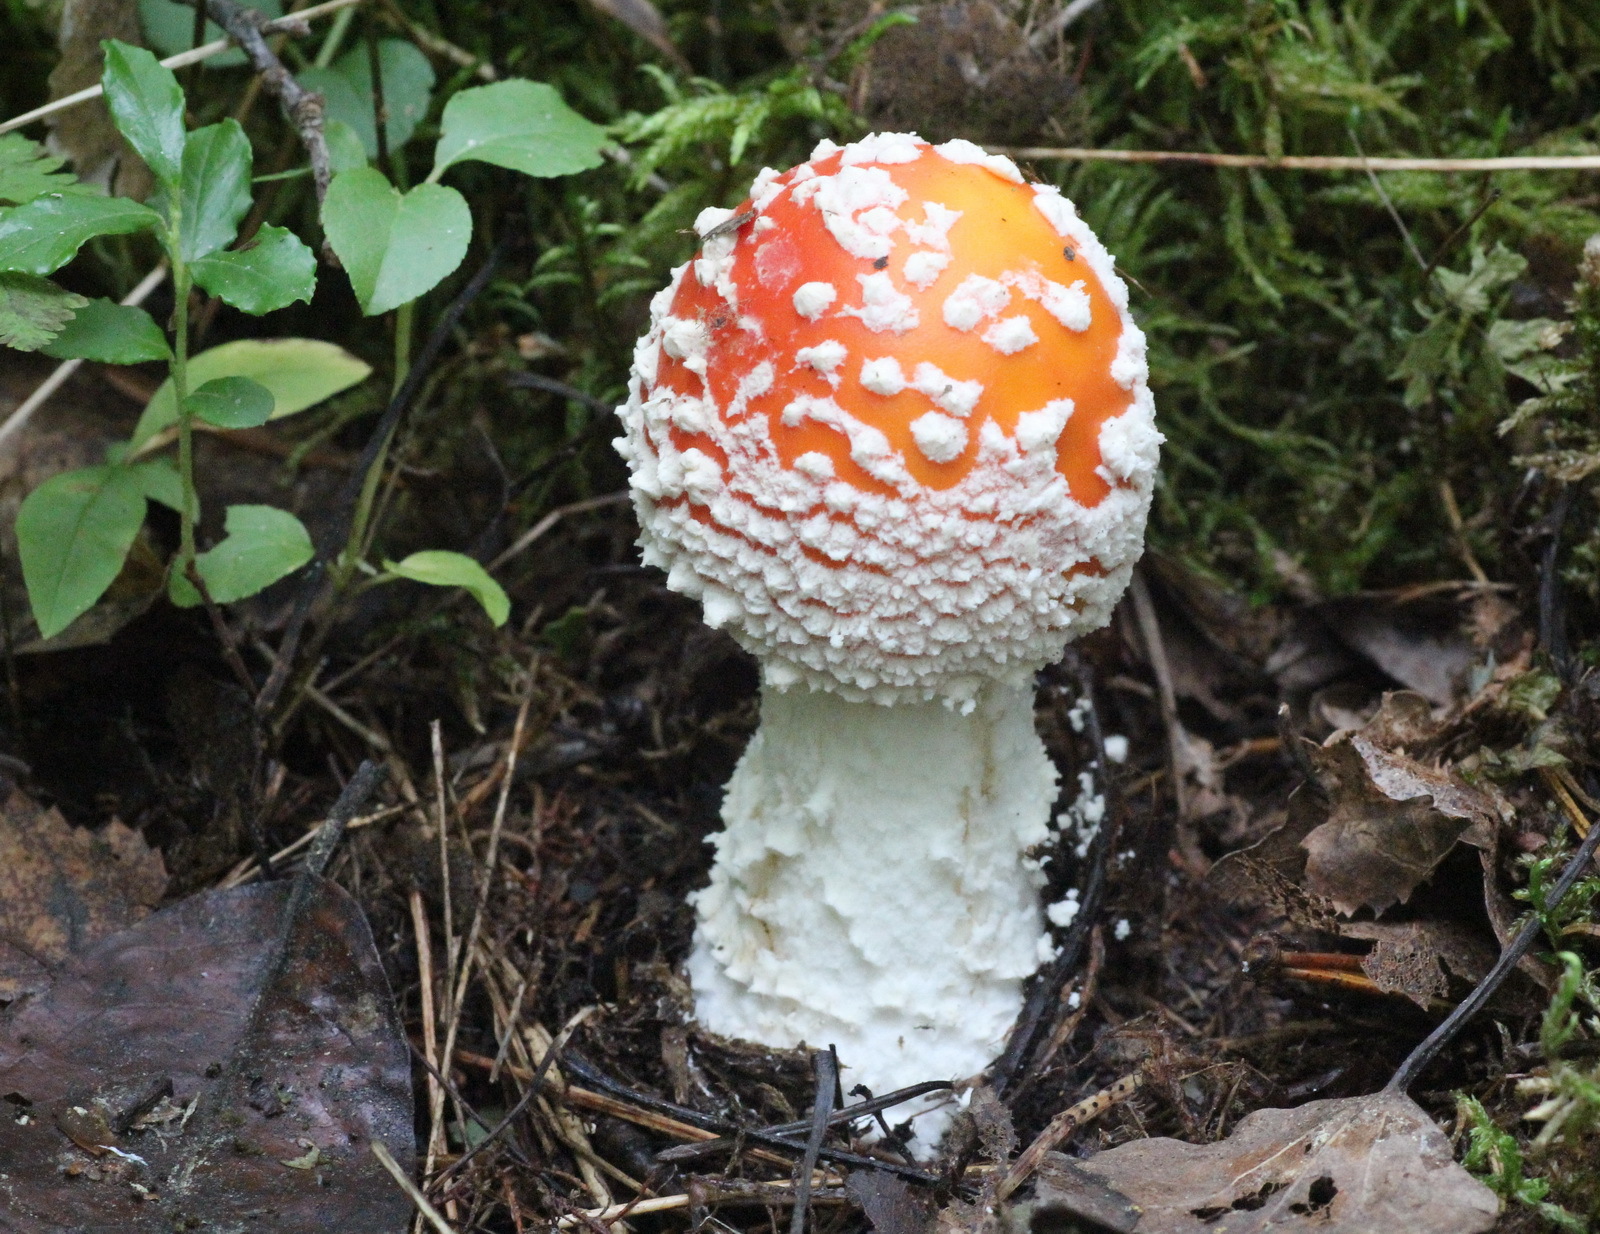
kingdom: Fungi
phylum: Basidiomycota
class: Agaricomycetes
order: Agaricales
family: Amanitaceae
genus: Amanita
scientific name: Amanita muscaria
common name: Fly agaric
